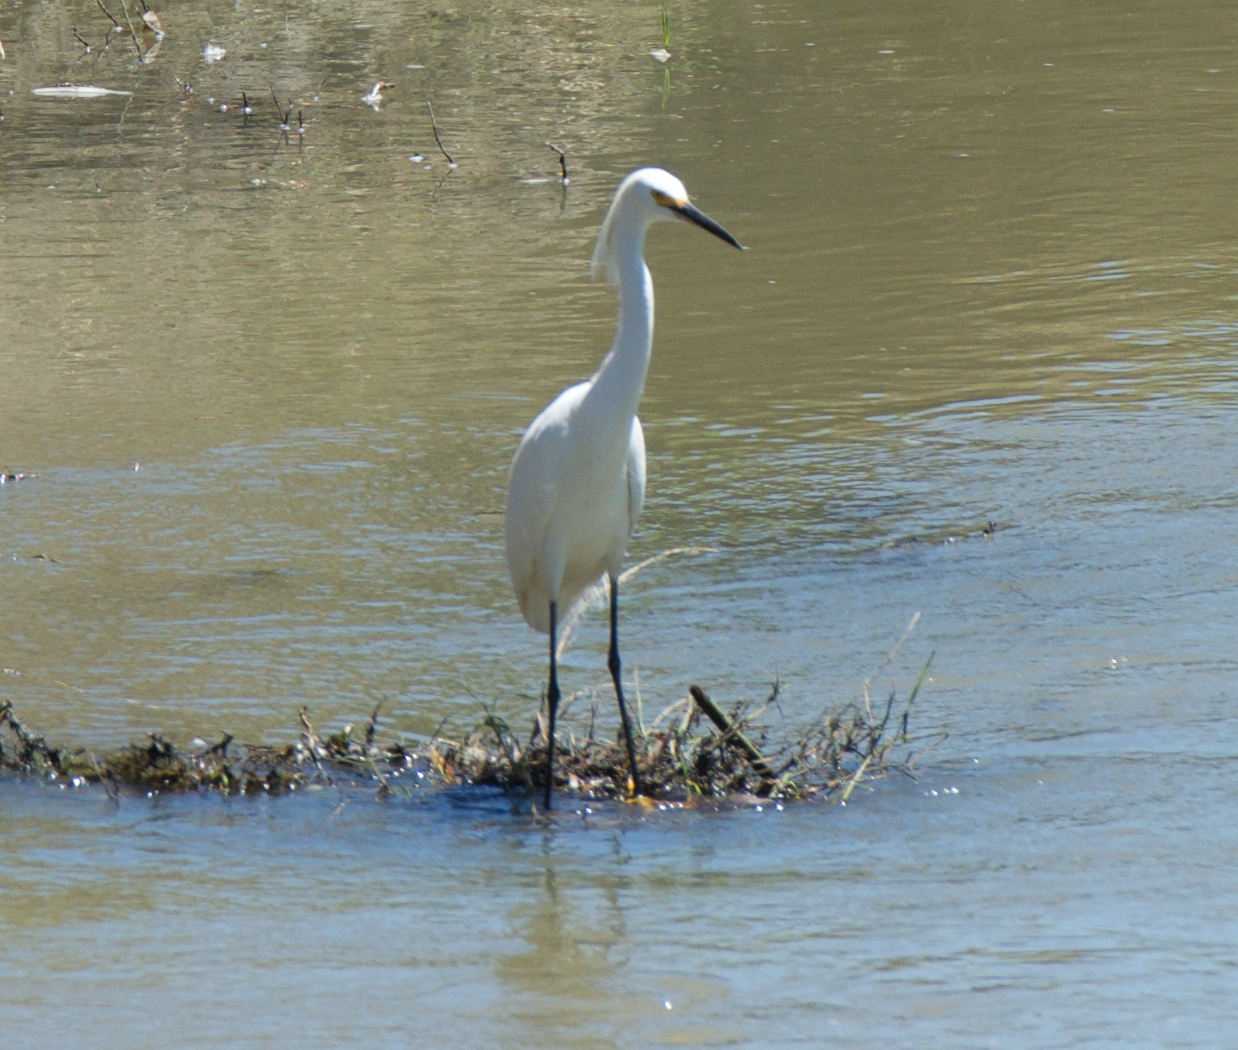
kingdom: Animalia
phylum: Chordata
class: Aves
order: Pelecaniformes
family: Ardeidae
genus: Egretta
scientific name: Egretta thula
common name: Snowy egret
